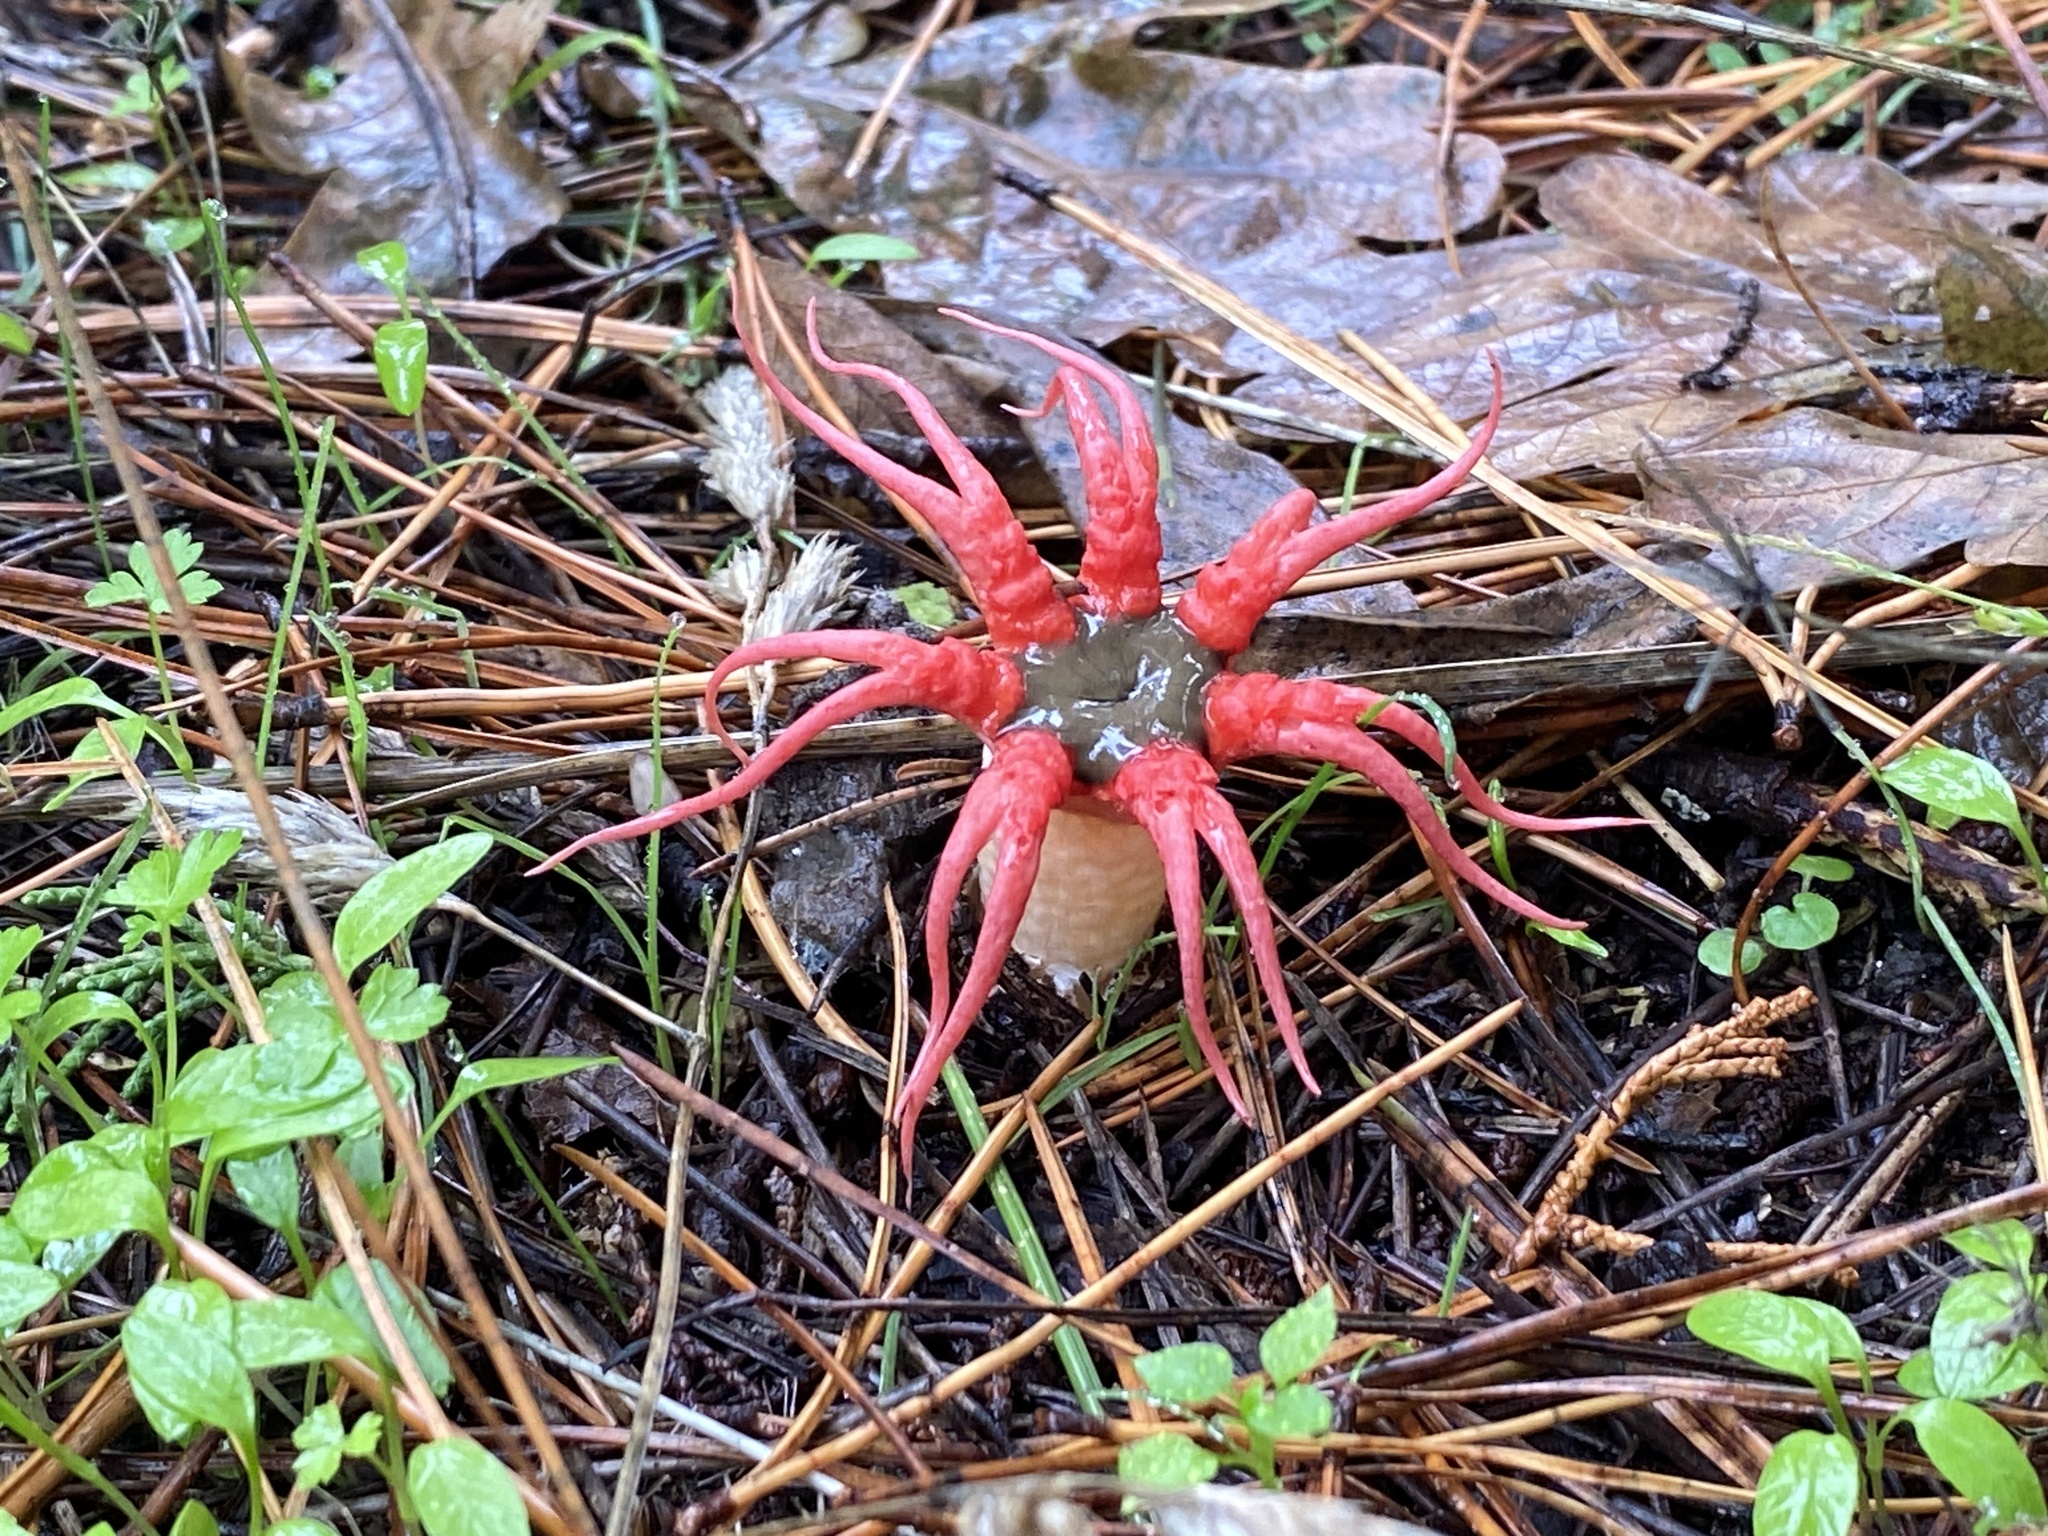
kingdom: Fungi
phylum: Basidiomycota
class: Agaricomycetes
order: Phallales
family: Phallaceae
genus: Aseroe
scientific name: Aseroe rubra
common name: Starfish fungus
